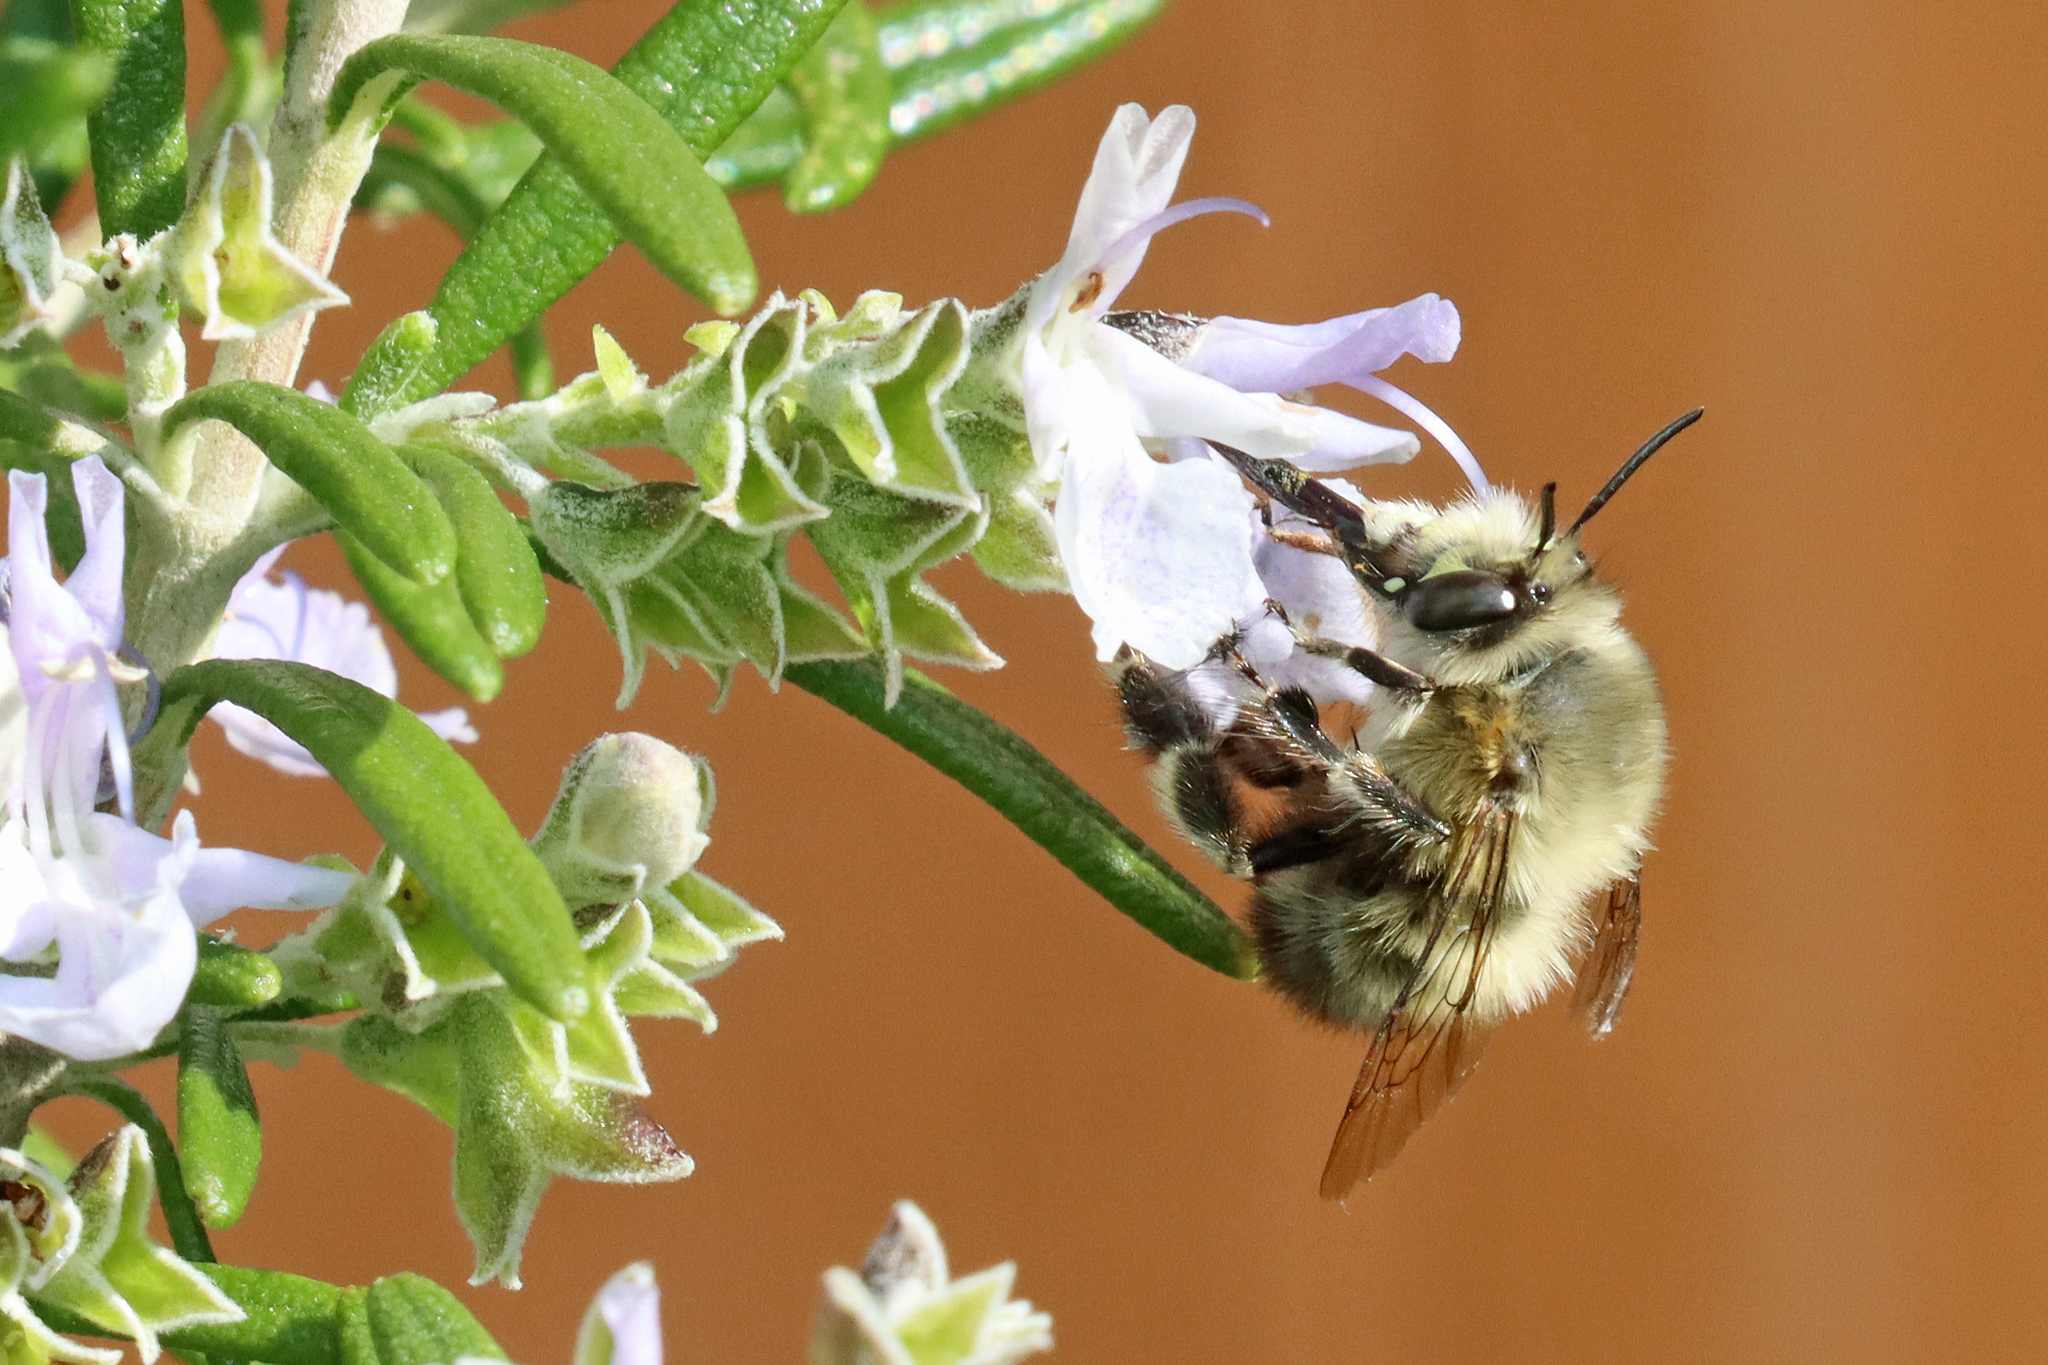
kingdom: Animalia
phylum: Arthropoda
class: Insecta
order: Hymenoptera
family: Apidae
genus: Anthophora
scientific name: Anthophora plumipes
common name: Hairy-footed flower bee
